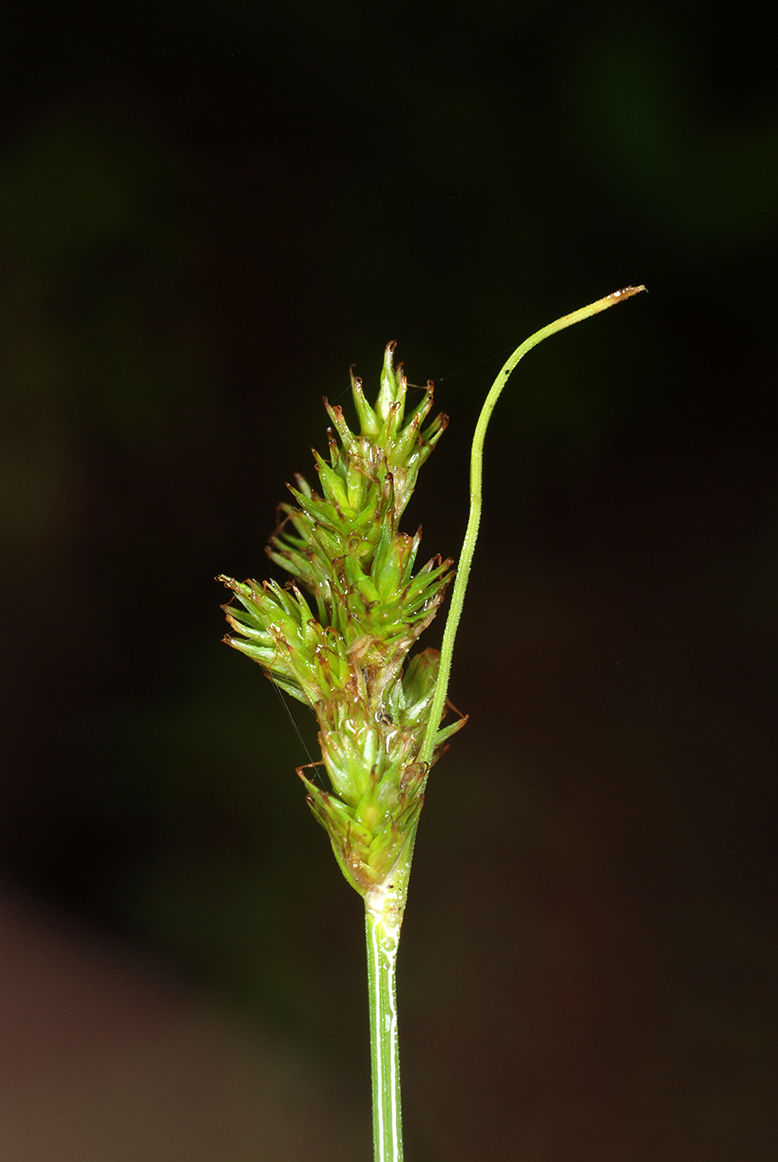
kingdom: Plantae
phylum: Tracheophyta
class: Liliopsida
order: Poales
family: Cyperaceae
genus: Carex
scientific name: Carex bonplandii
